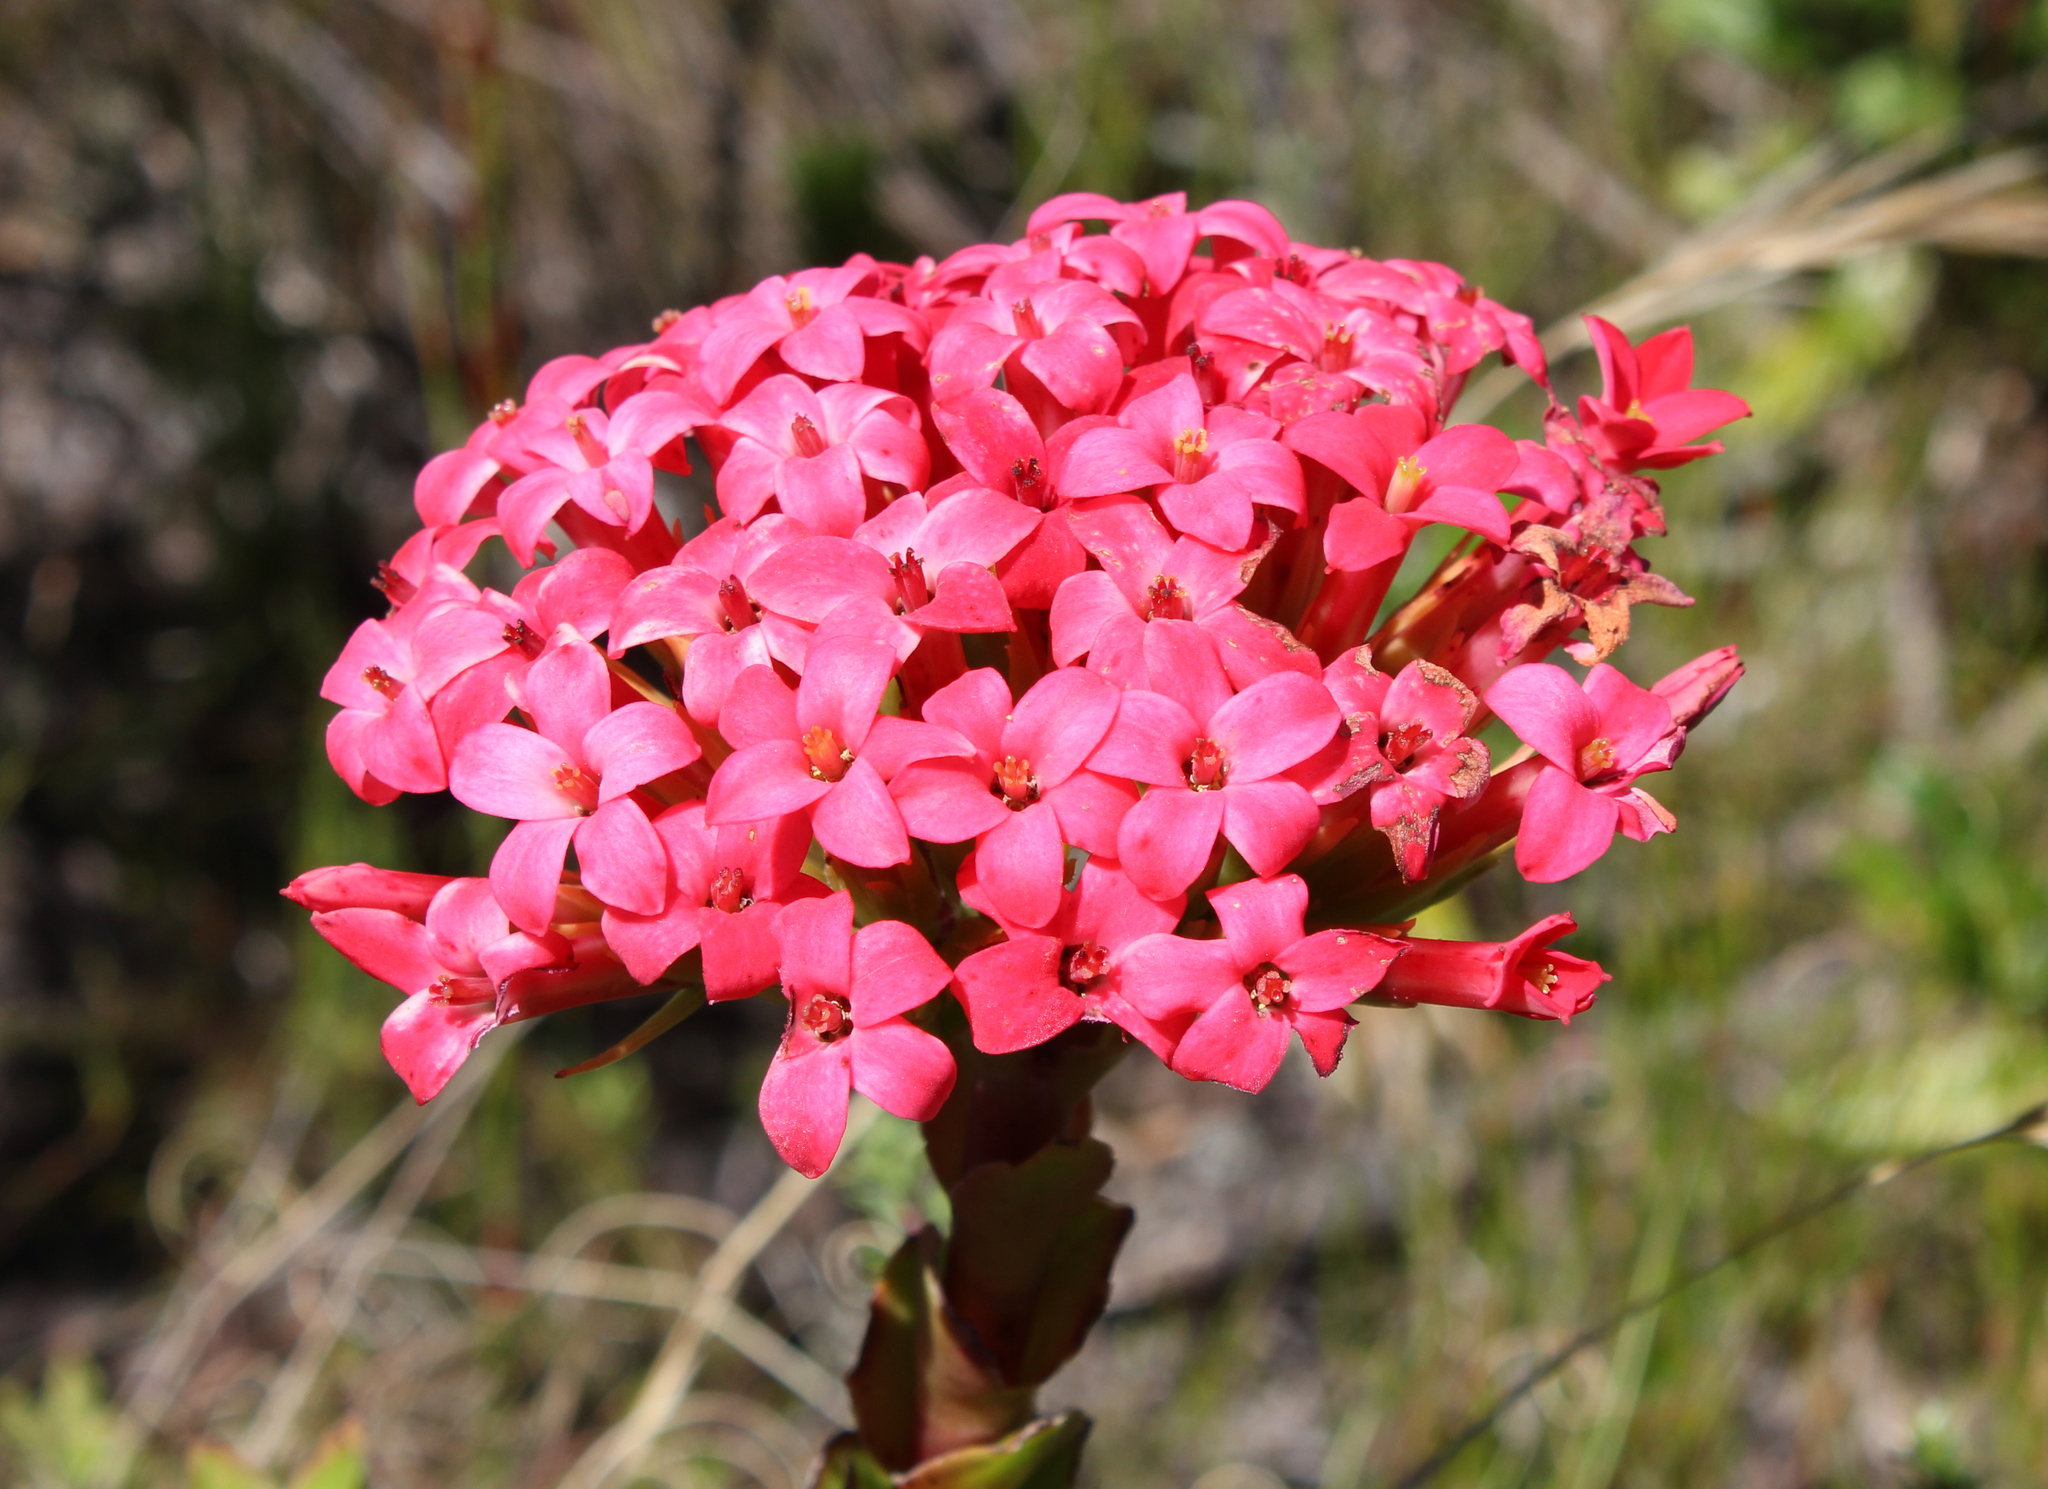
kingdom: Plantae
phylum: Tracheophyta
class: Magnoliopsida
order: Saxifragales
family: Crassulaceae
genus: Crassula
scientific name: Crassula coccinea
